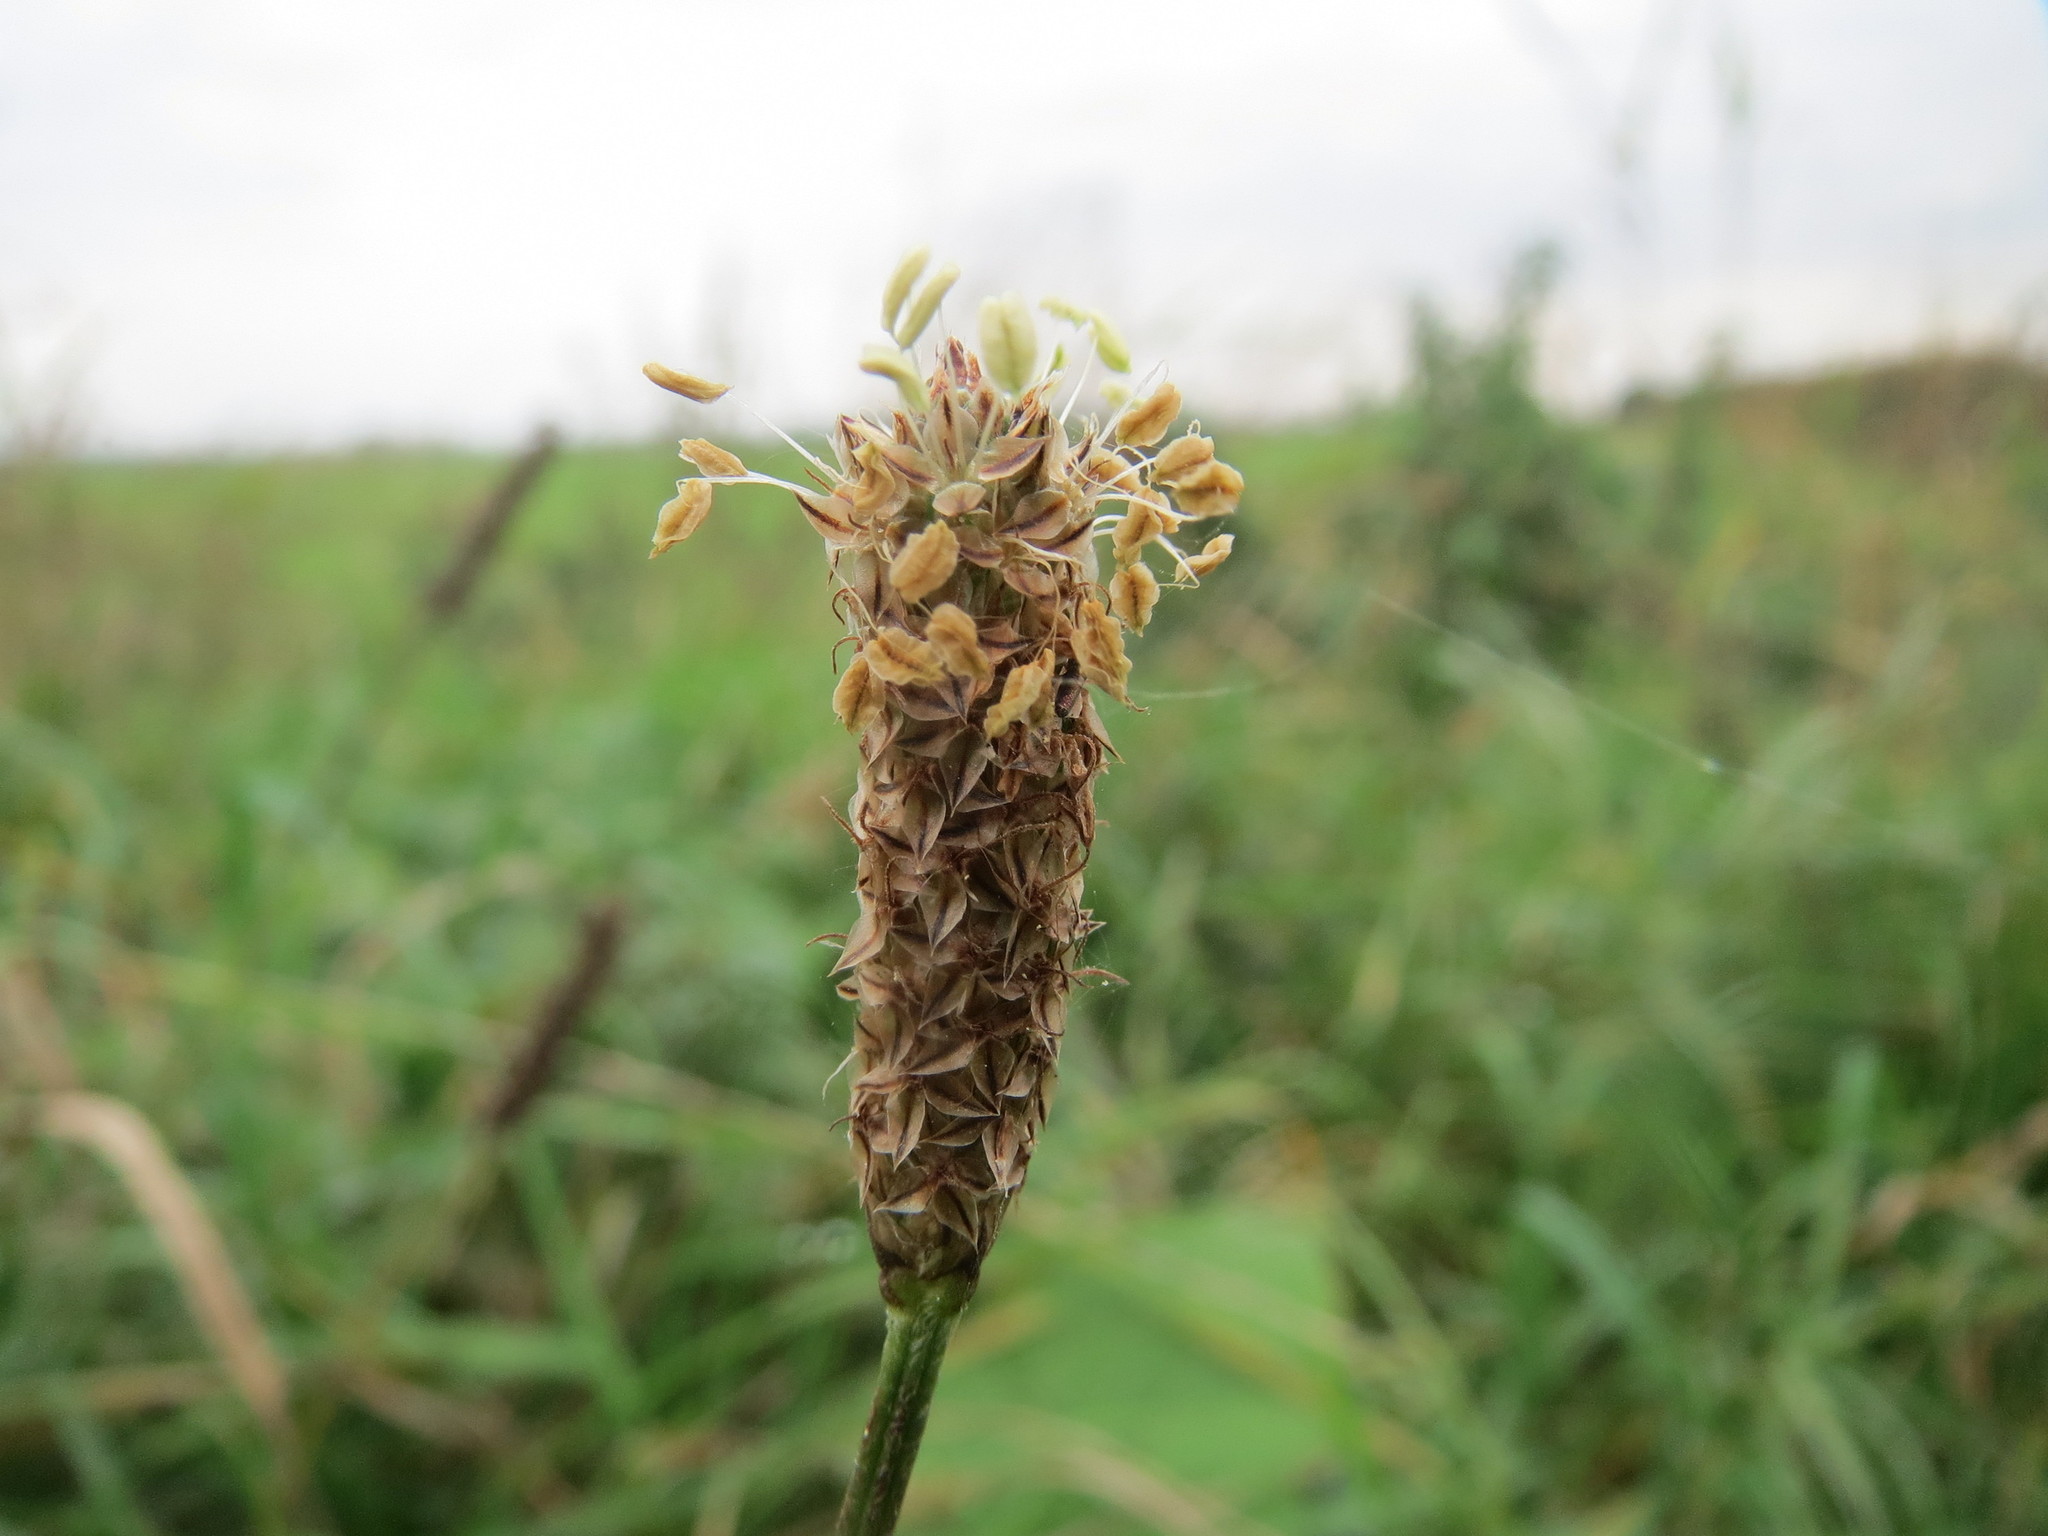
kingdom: Plantae
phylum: Tracheophyta
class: Magnoliopsida
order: Lamiales
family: Plantaginaceae
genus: Plantago
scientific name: Plantago lanceolata
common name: Ribwort plantain
